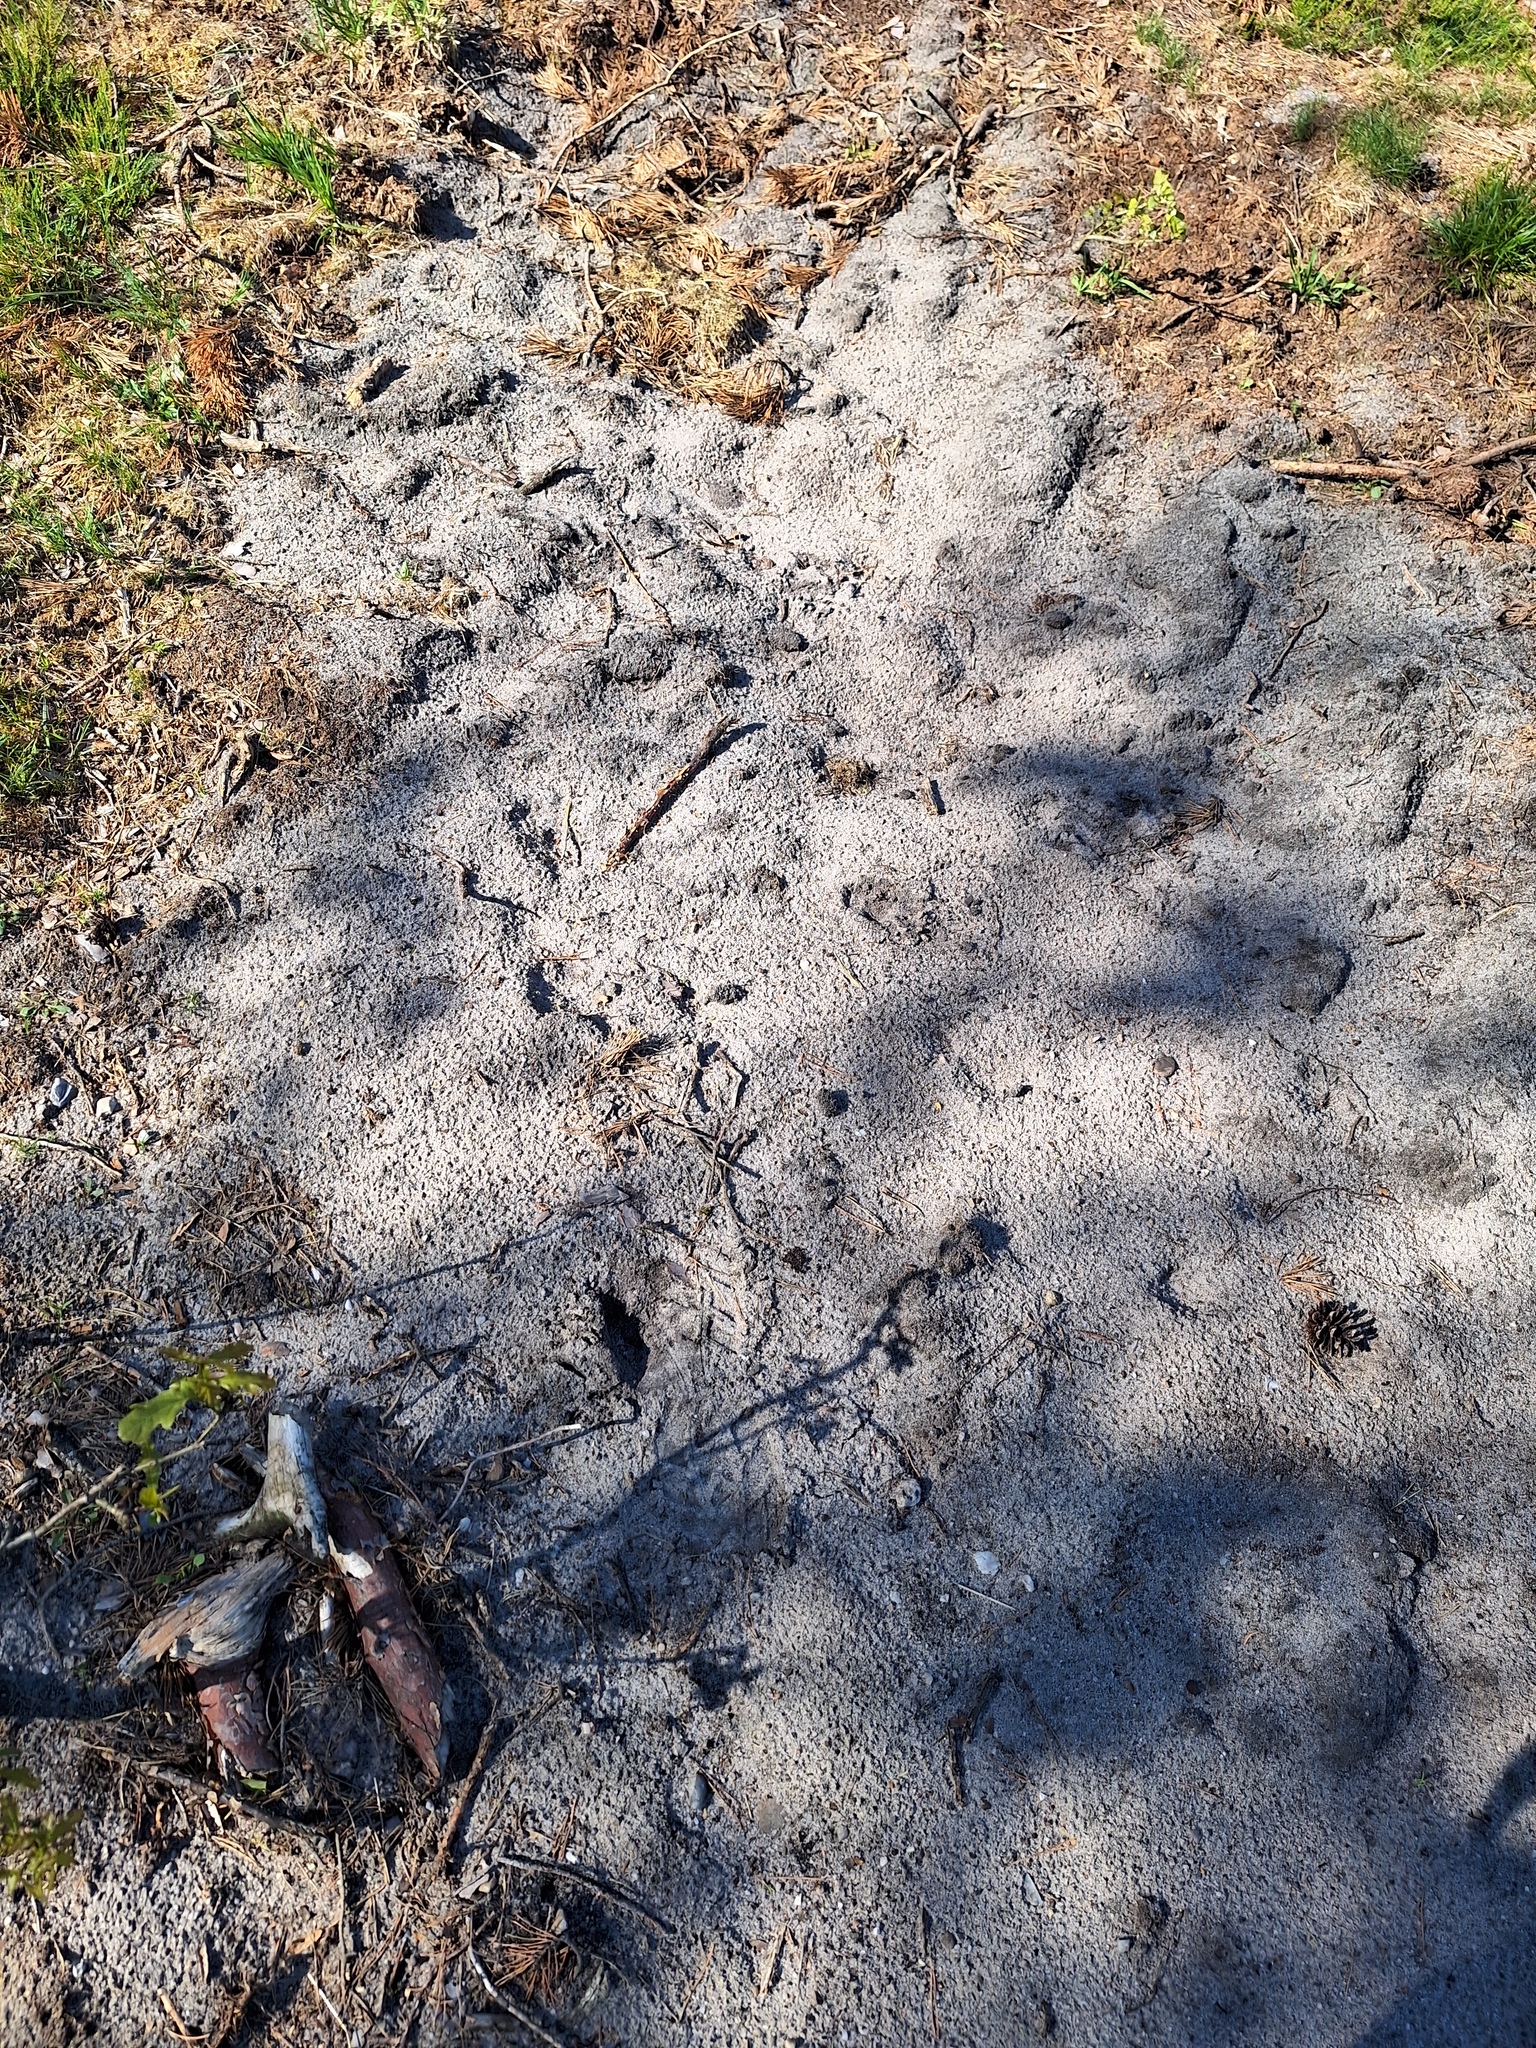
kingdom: Animalia
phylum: Arthropoda
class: Insecta
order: Hymenoptera
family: Crabronidae
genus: Philanthus
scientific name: Philanthus triangulum
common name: Bee wolf
